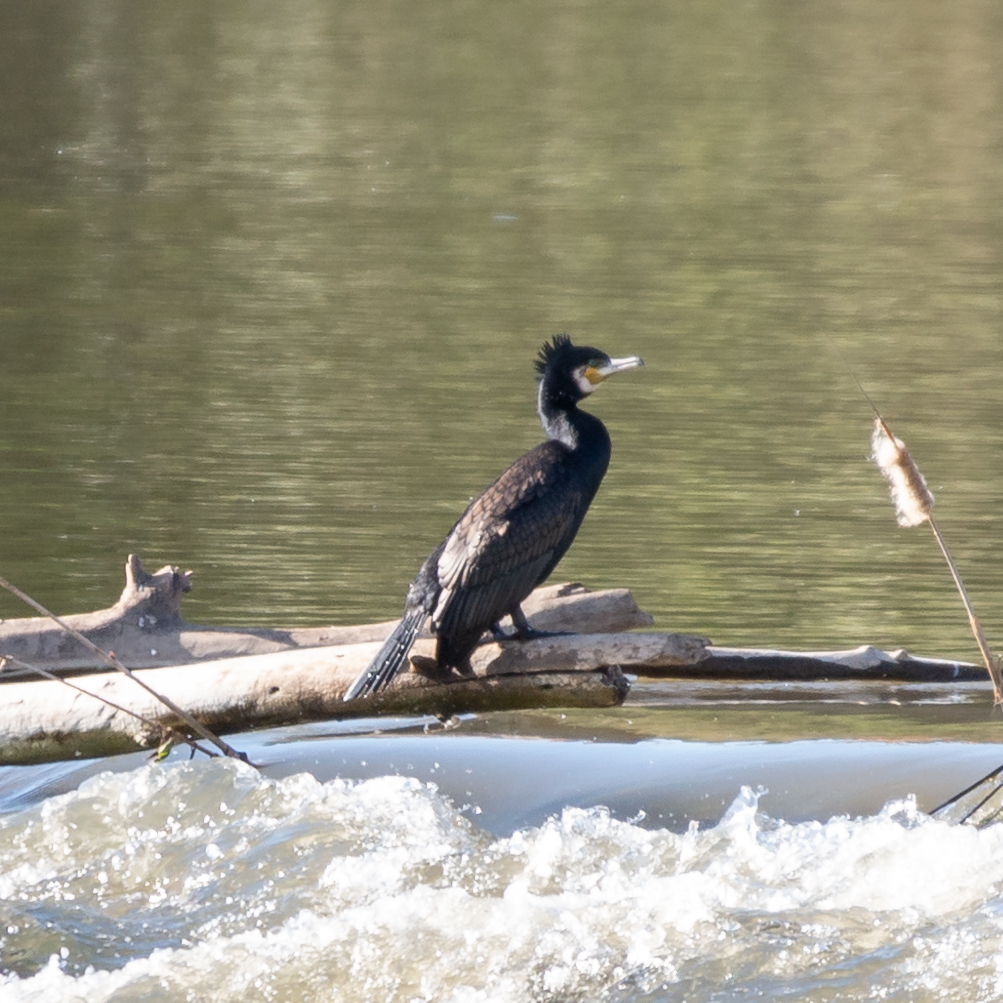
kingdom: Animalia
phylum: Chordata
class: Aves
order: Suliformes
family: Phalacrocoracidae
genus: Phalacrocorax
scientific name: Phalacrocorax carbo
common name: Great cormorant
